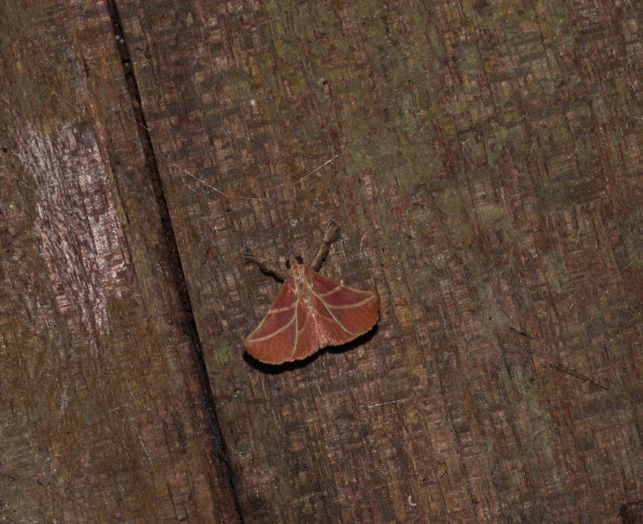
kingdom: Animalia
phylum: Arthropoda
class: Insecta
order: Lepidoptera
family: Pyralidae
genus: Pachypodistes
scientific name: Pachypodistes goeldii
